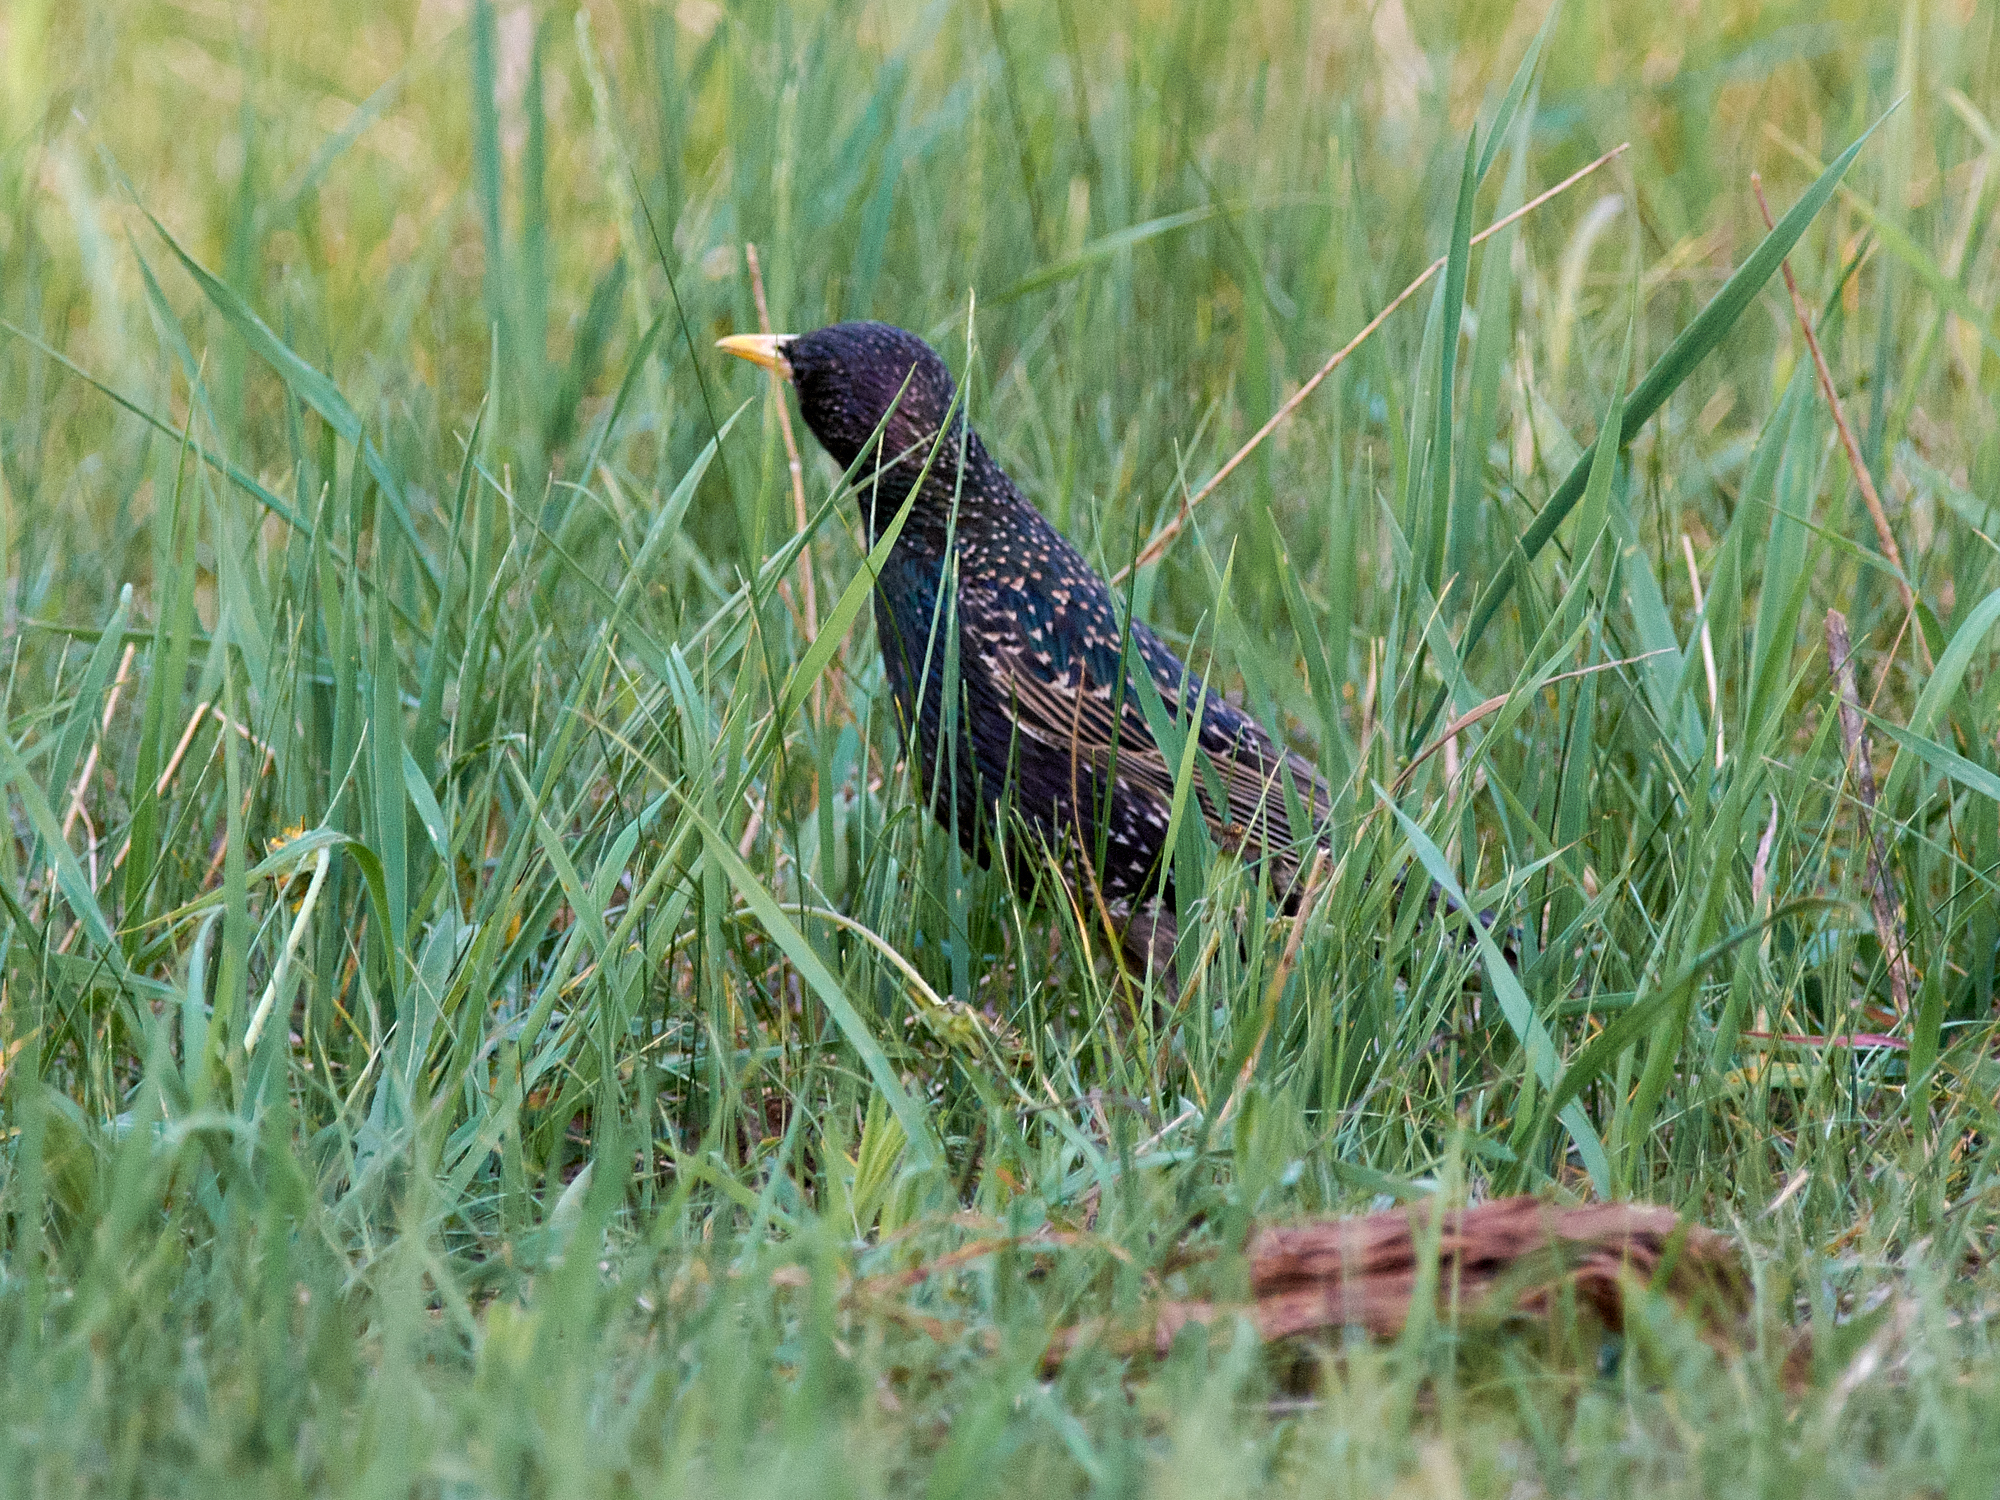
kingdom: Animalia
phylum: Chordata
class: Aves
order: Passeriformes
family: Sturnidae
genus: Sturnus
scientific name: Sturnus vulgaris
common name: Common starling
